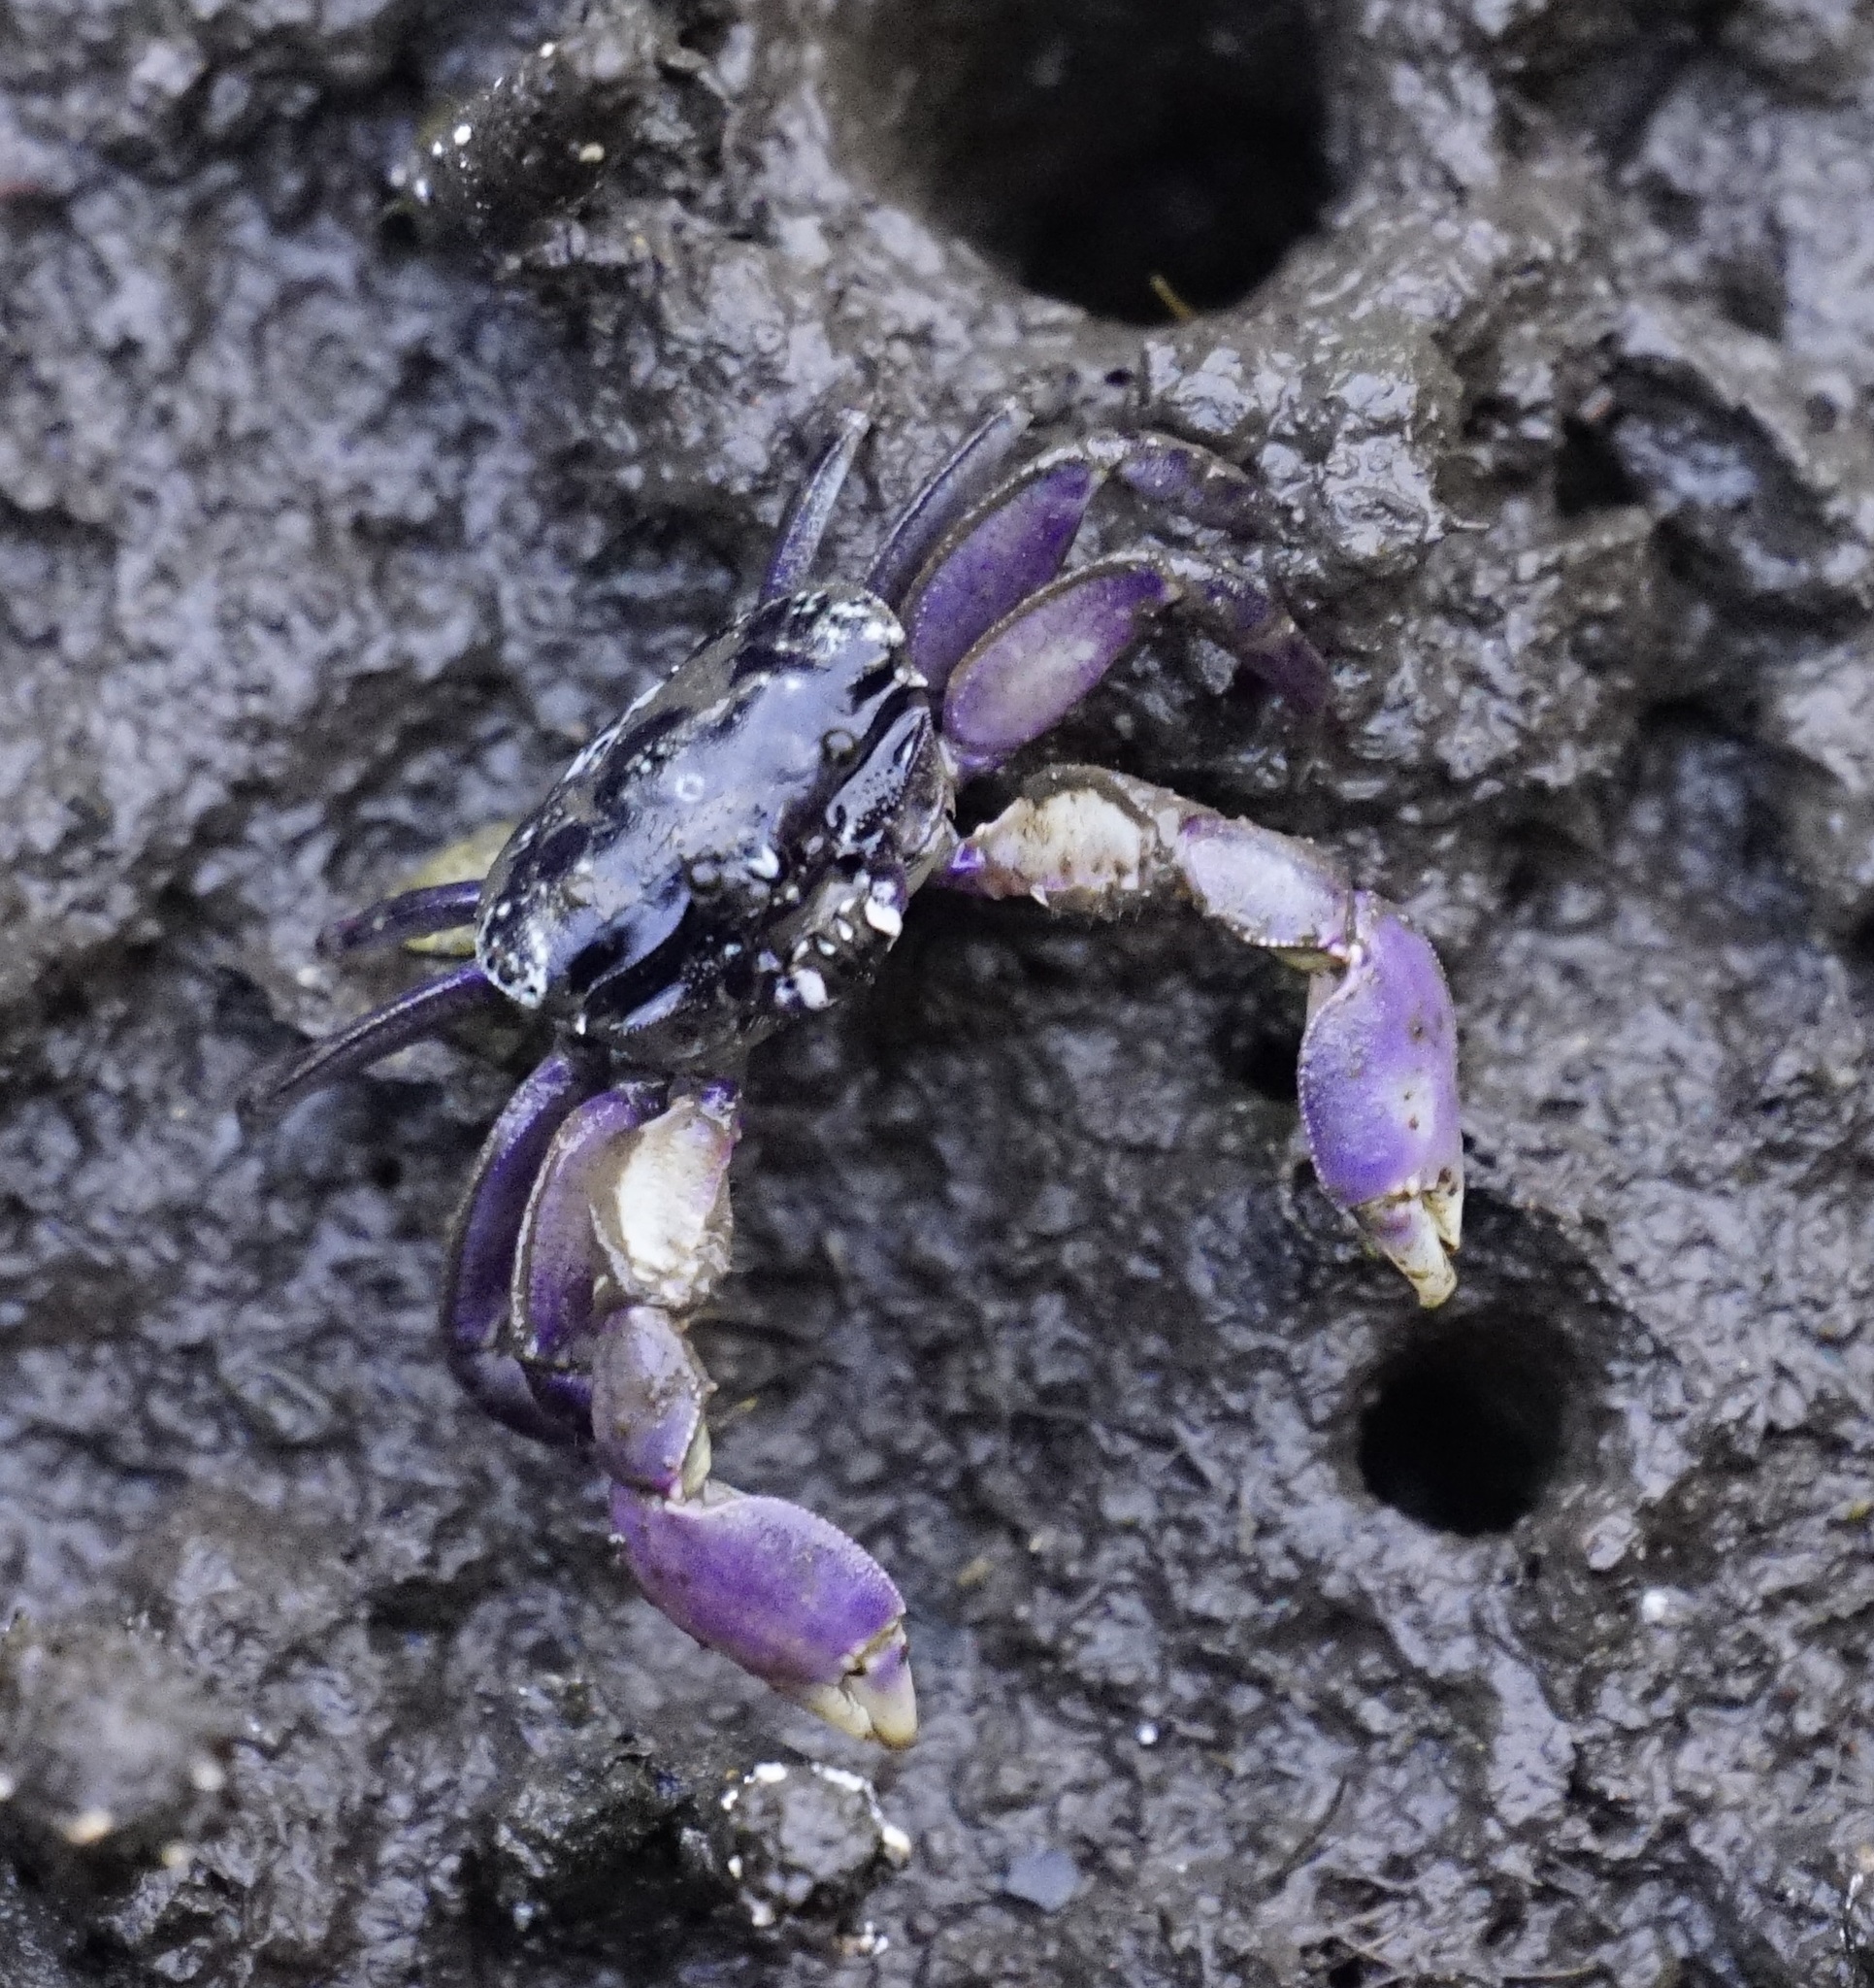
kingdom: Animalia
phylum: Arthropoda
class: Malacostraca
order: Decapoda
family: Heloeciidae
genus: Heloecius
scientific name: Heloecius cordiformis
